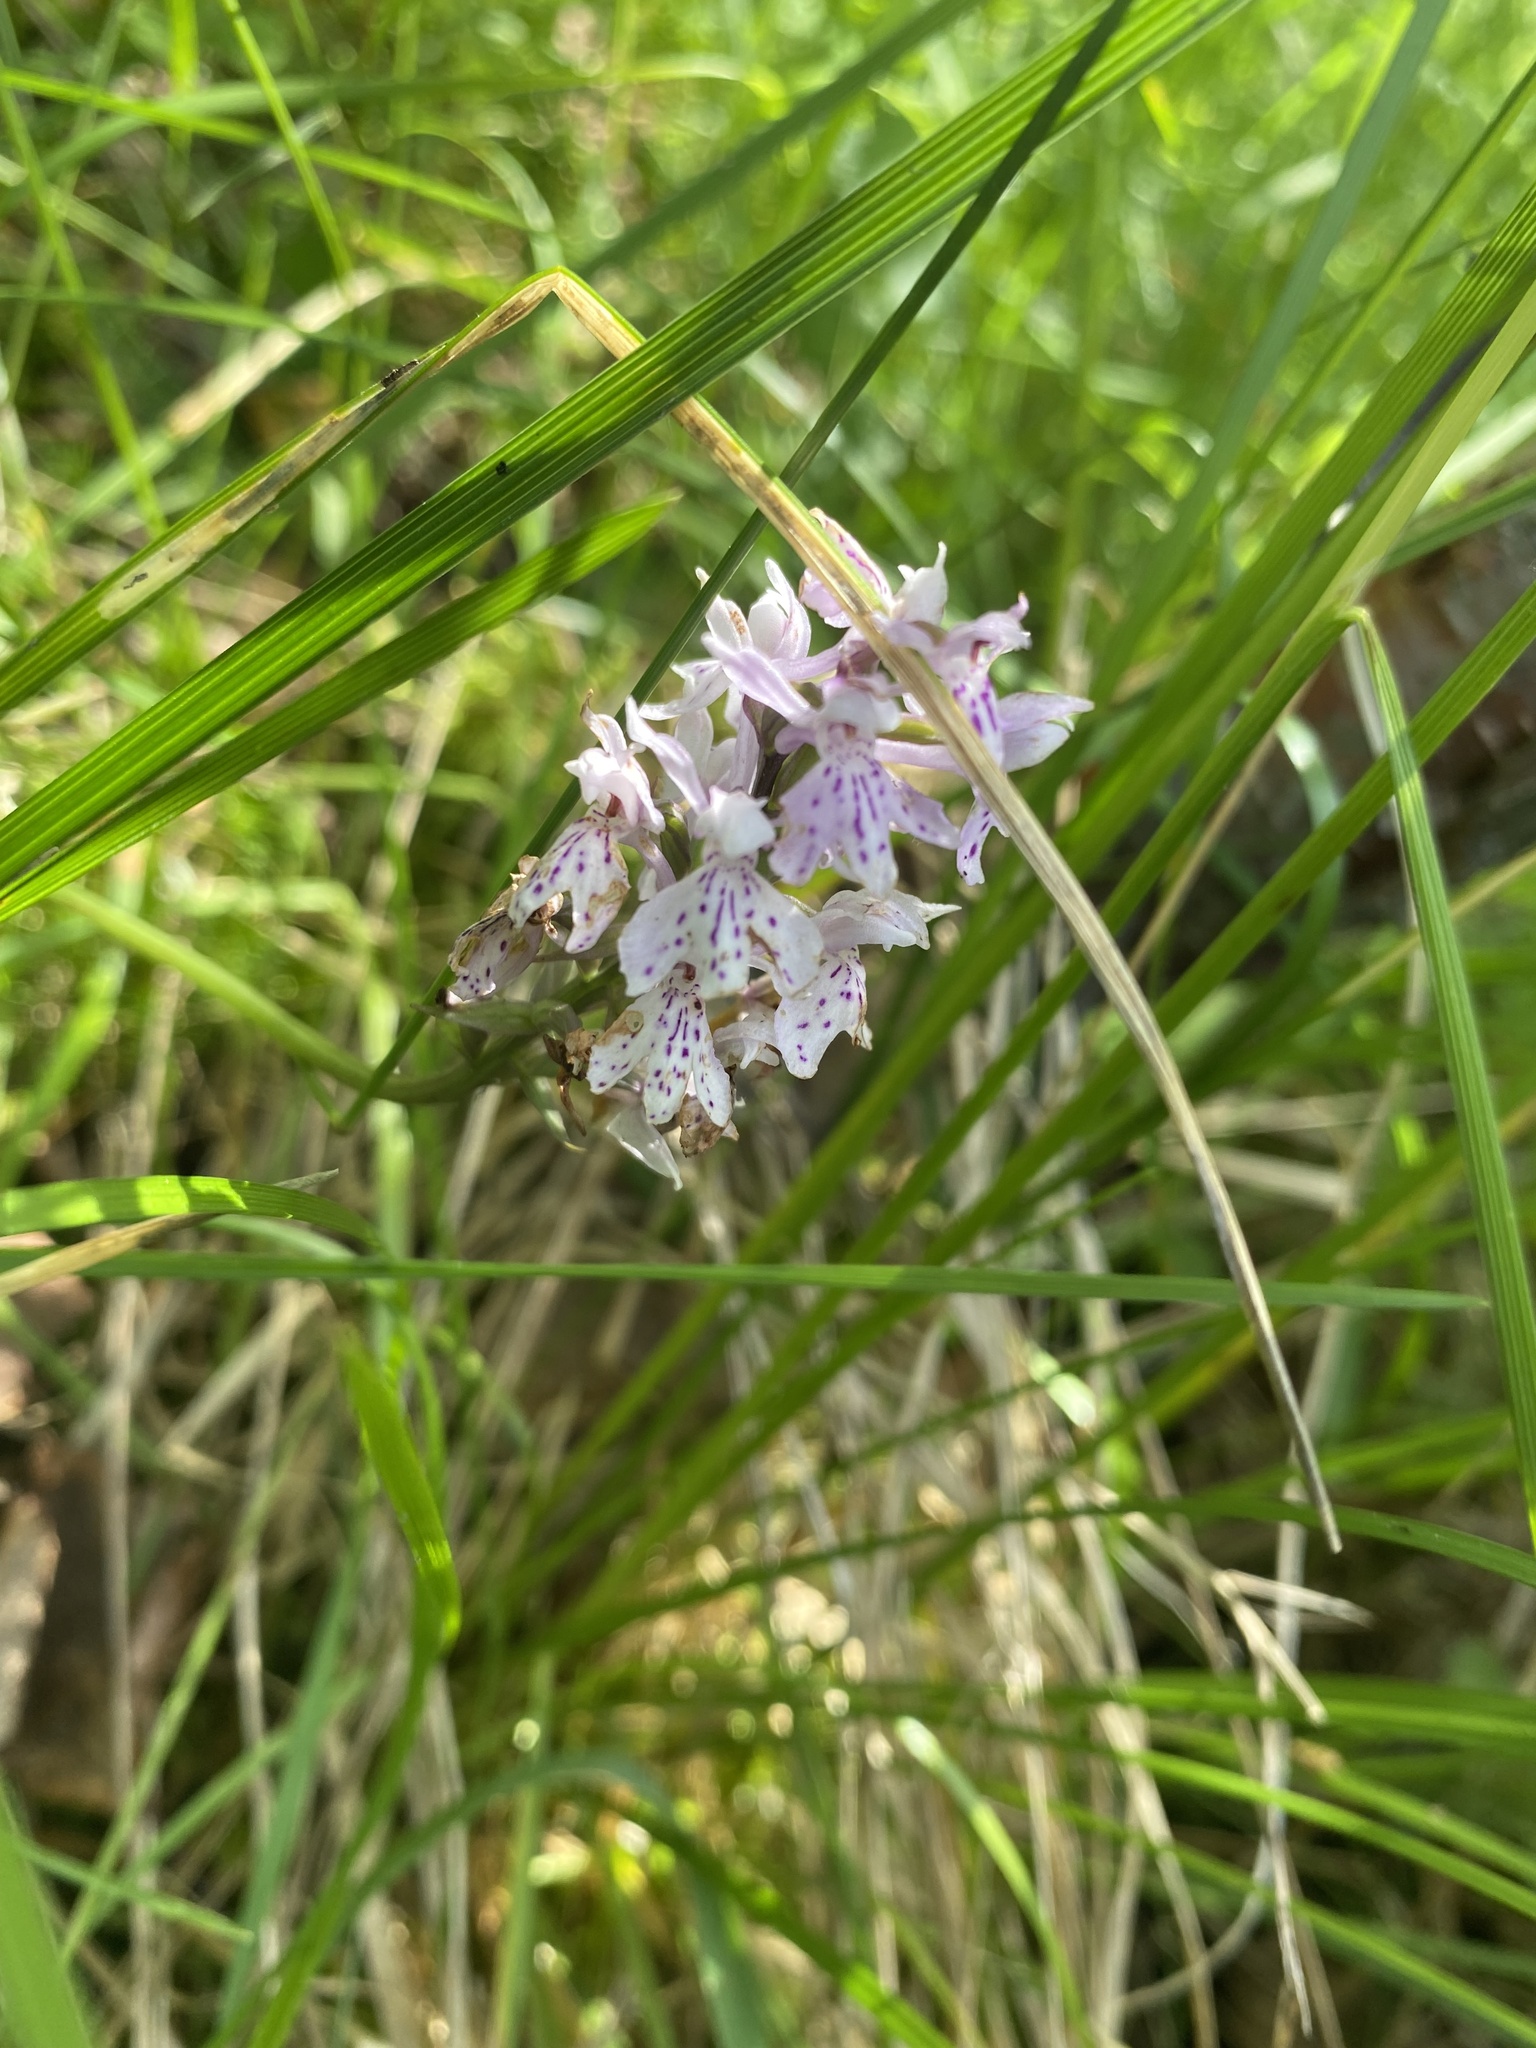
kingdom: Plantae
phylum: Tracheophyta
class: Liliopsida
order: Asparagales
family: Orchidaceae
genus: Dactylorhiza
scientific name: Dactylorhiza maculata
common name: Heath spotted-orchid
